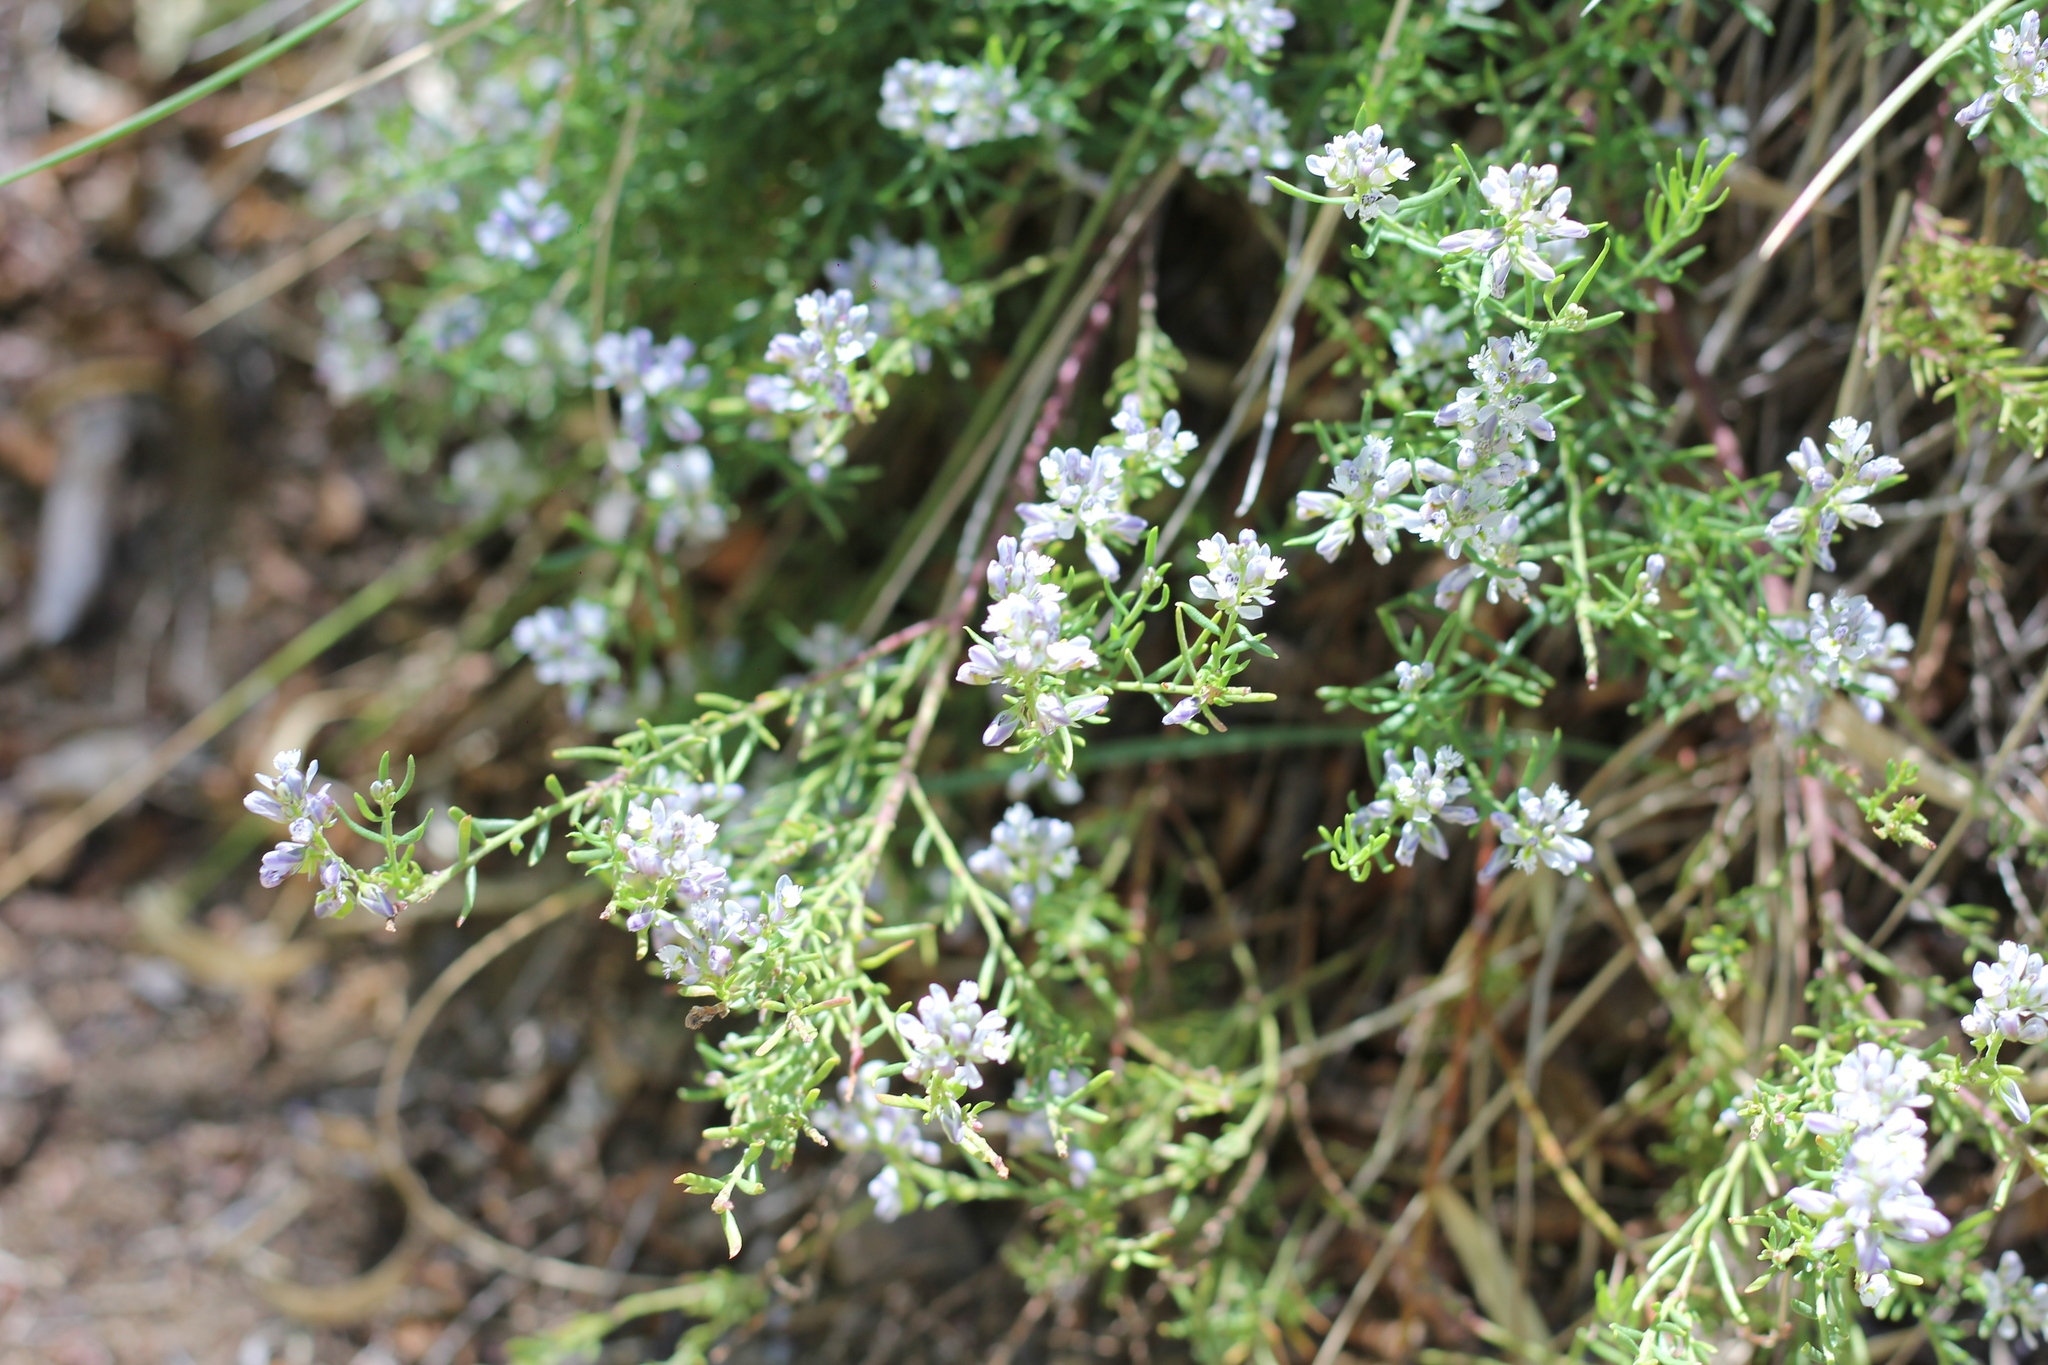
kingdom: Plantae
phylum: Tracheophyta
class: Magnoliopsida
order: Fabales
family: Polygalaceae
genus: Polygala
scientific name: Polygala gnidioides
